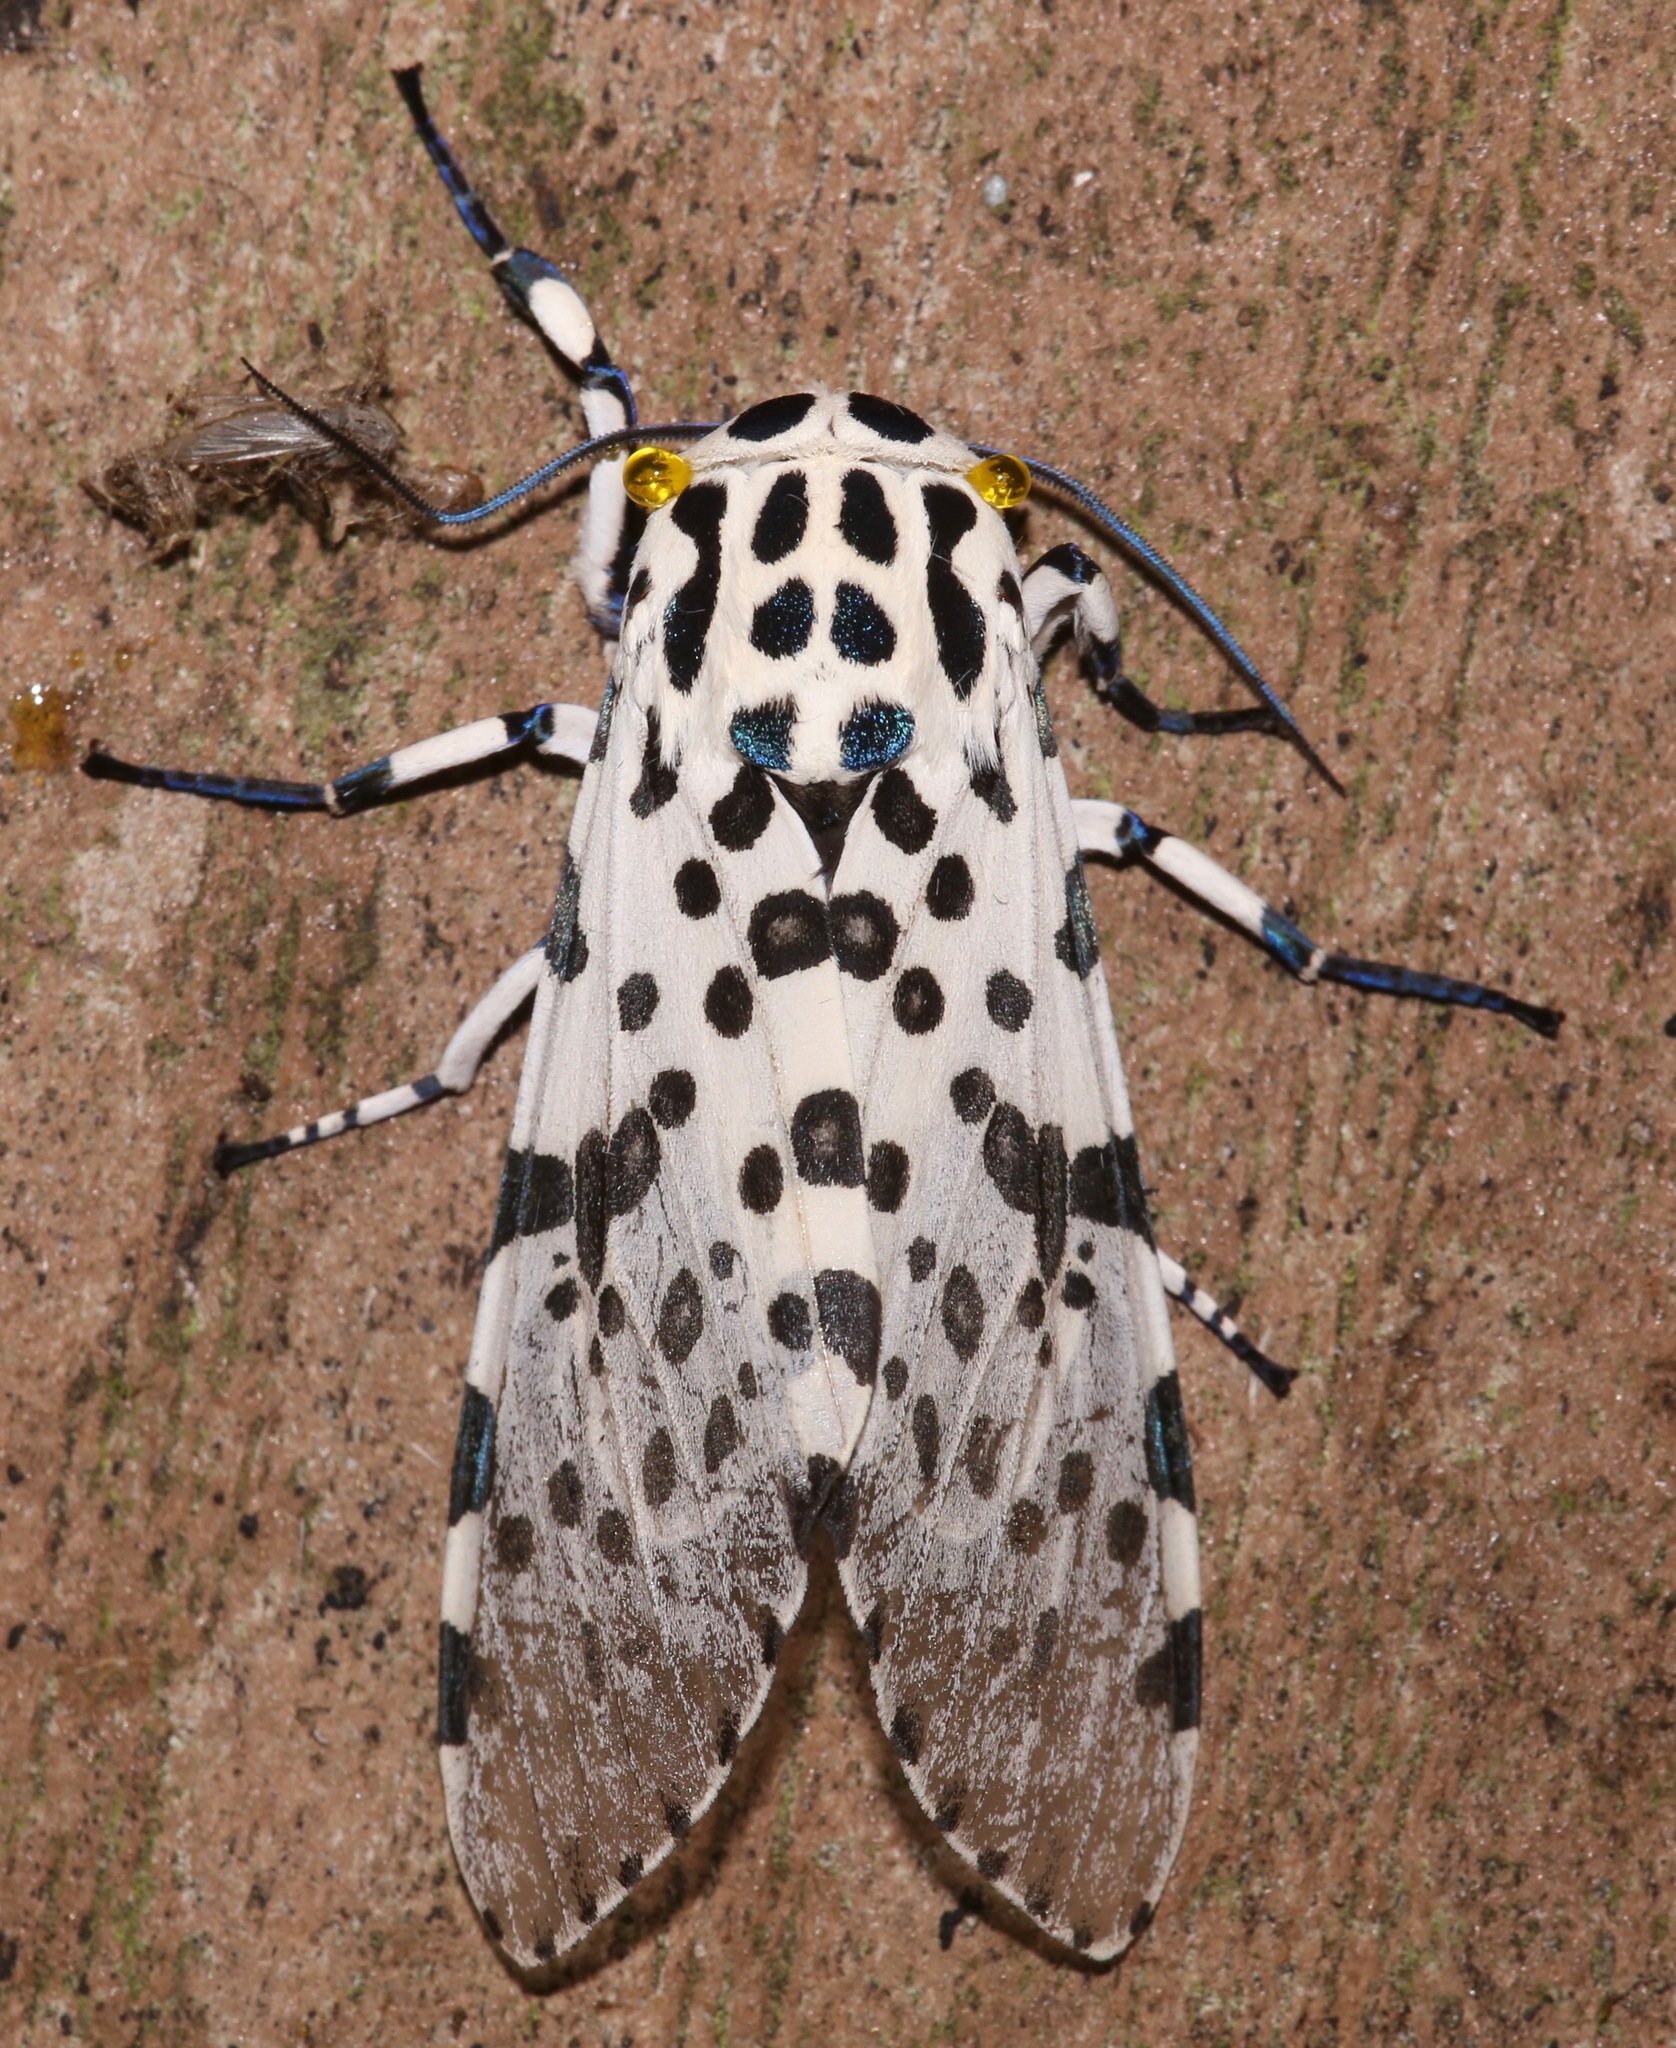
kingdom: Animalia
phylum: Arthropoda
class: Insecta
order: Lepidoptera
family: Erebidae
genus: Hypercompe
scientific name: Hypercompe scribonia
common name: Giant leopard moth
